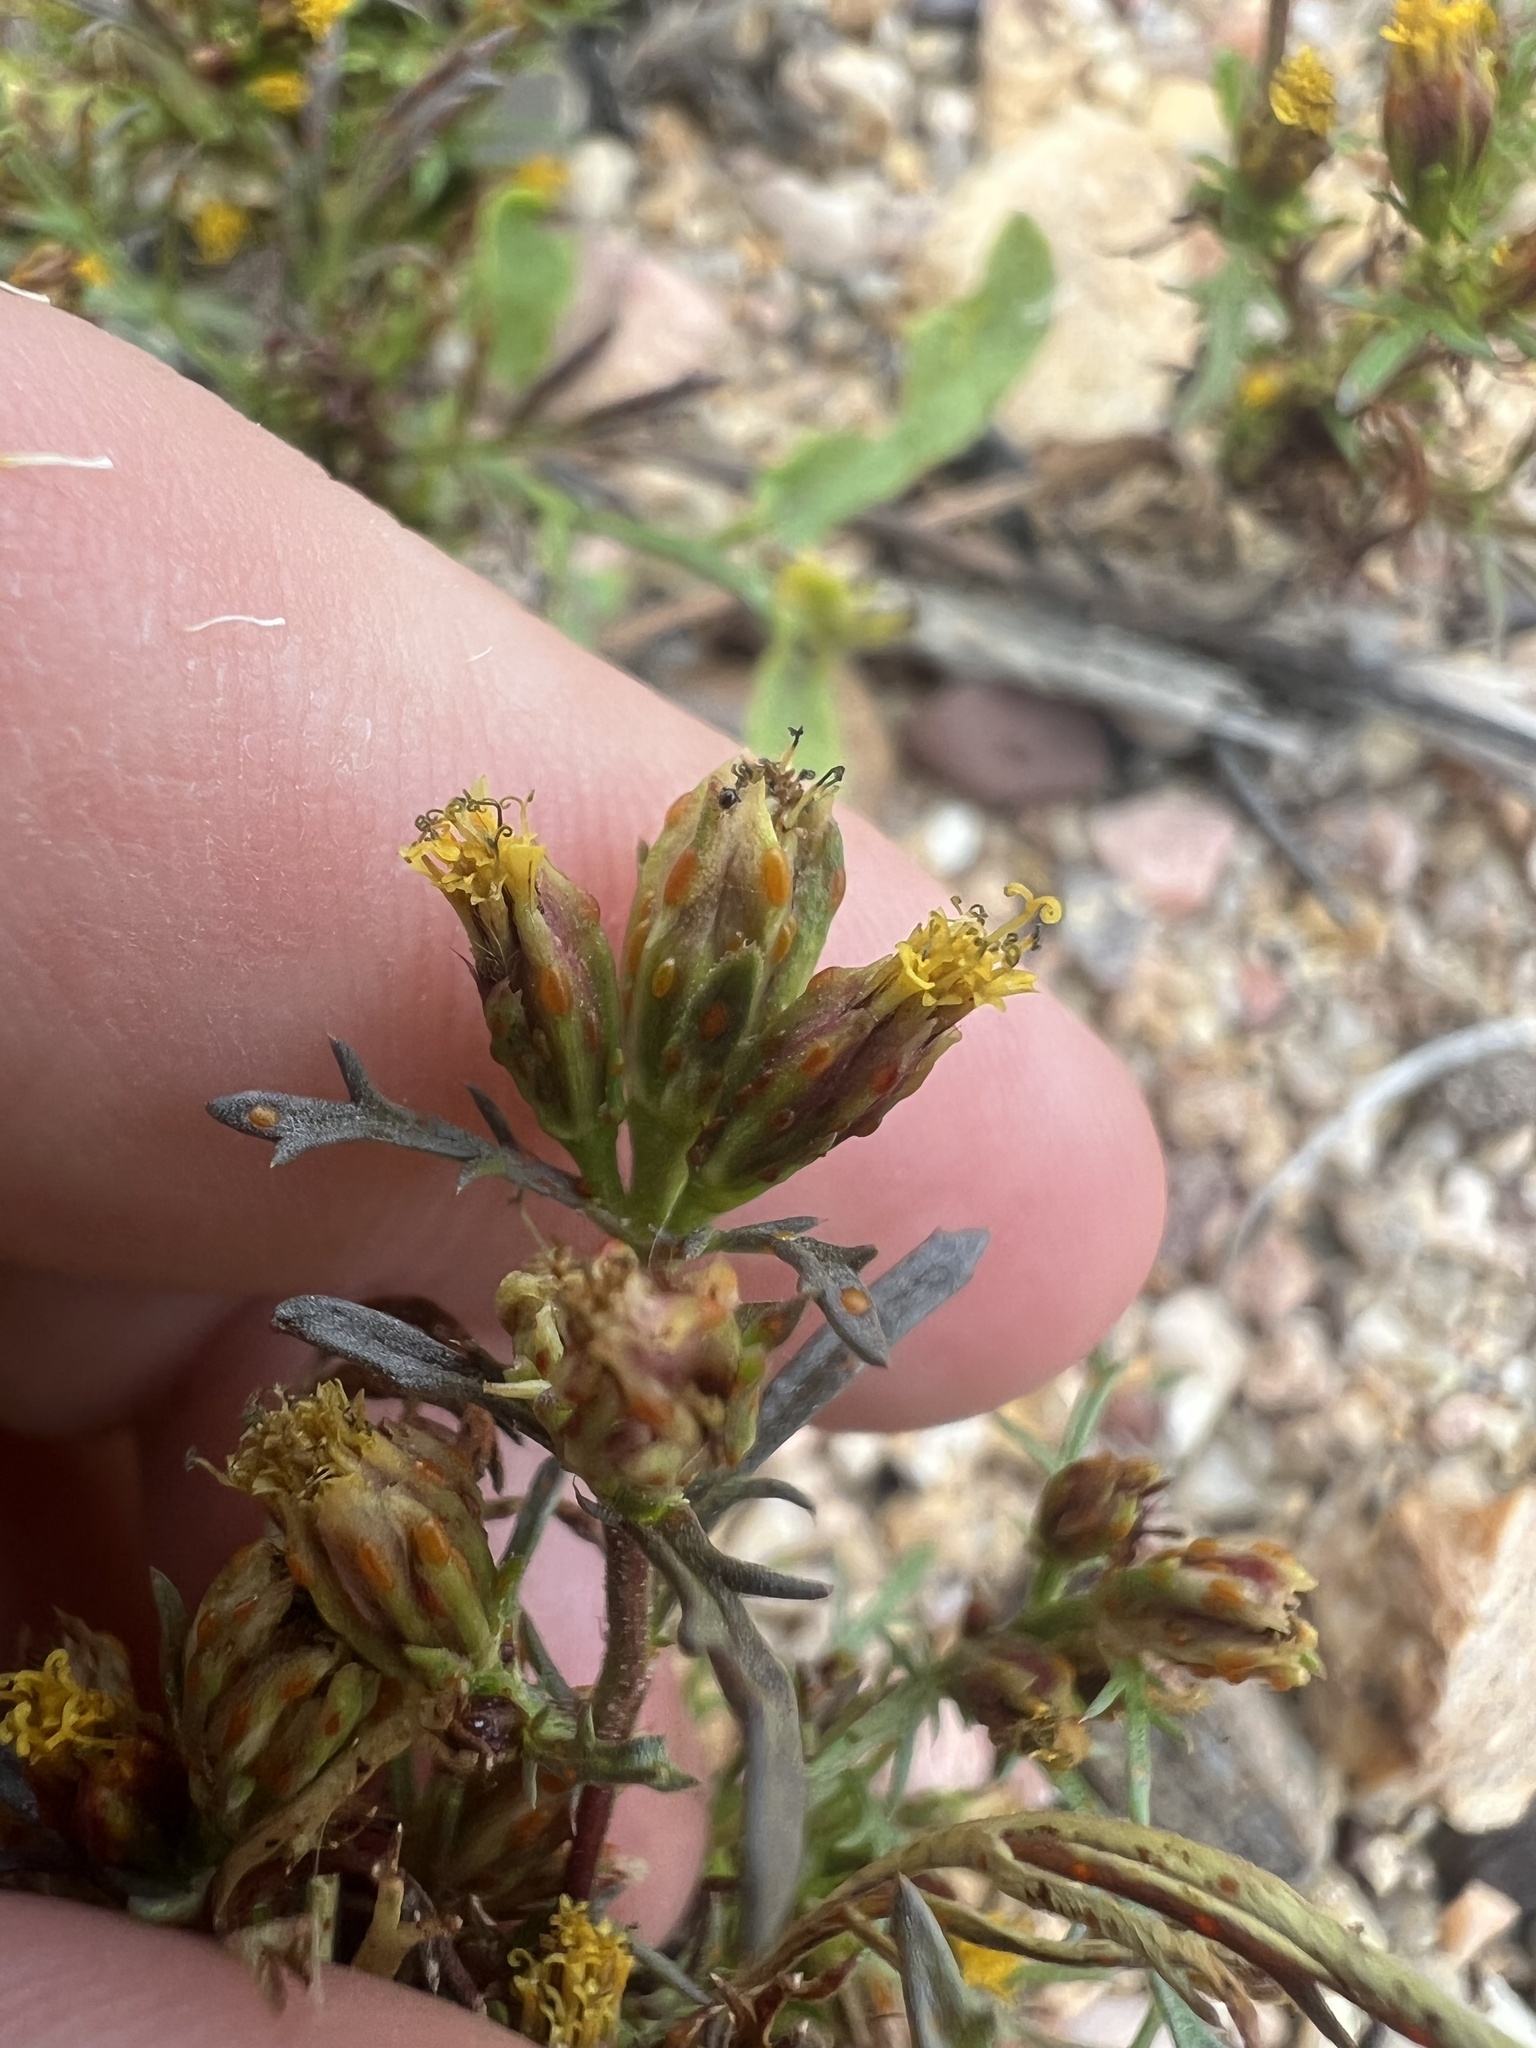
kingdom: Plantae
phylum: Tracheophyta
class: Magnoliopsida
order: Asterales
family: Asteraceae
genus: Dyssodia
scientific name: Dyssodia papposa
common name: Dogweed
